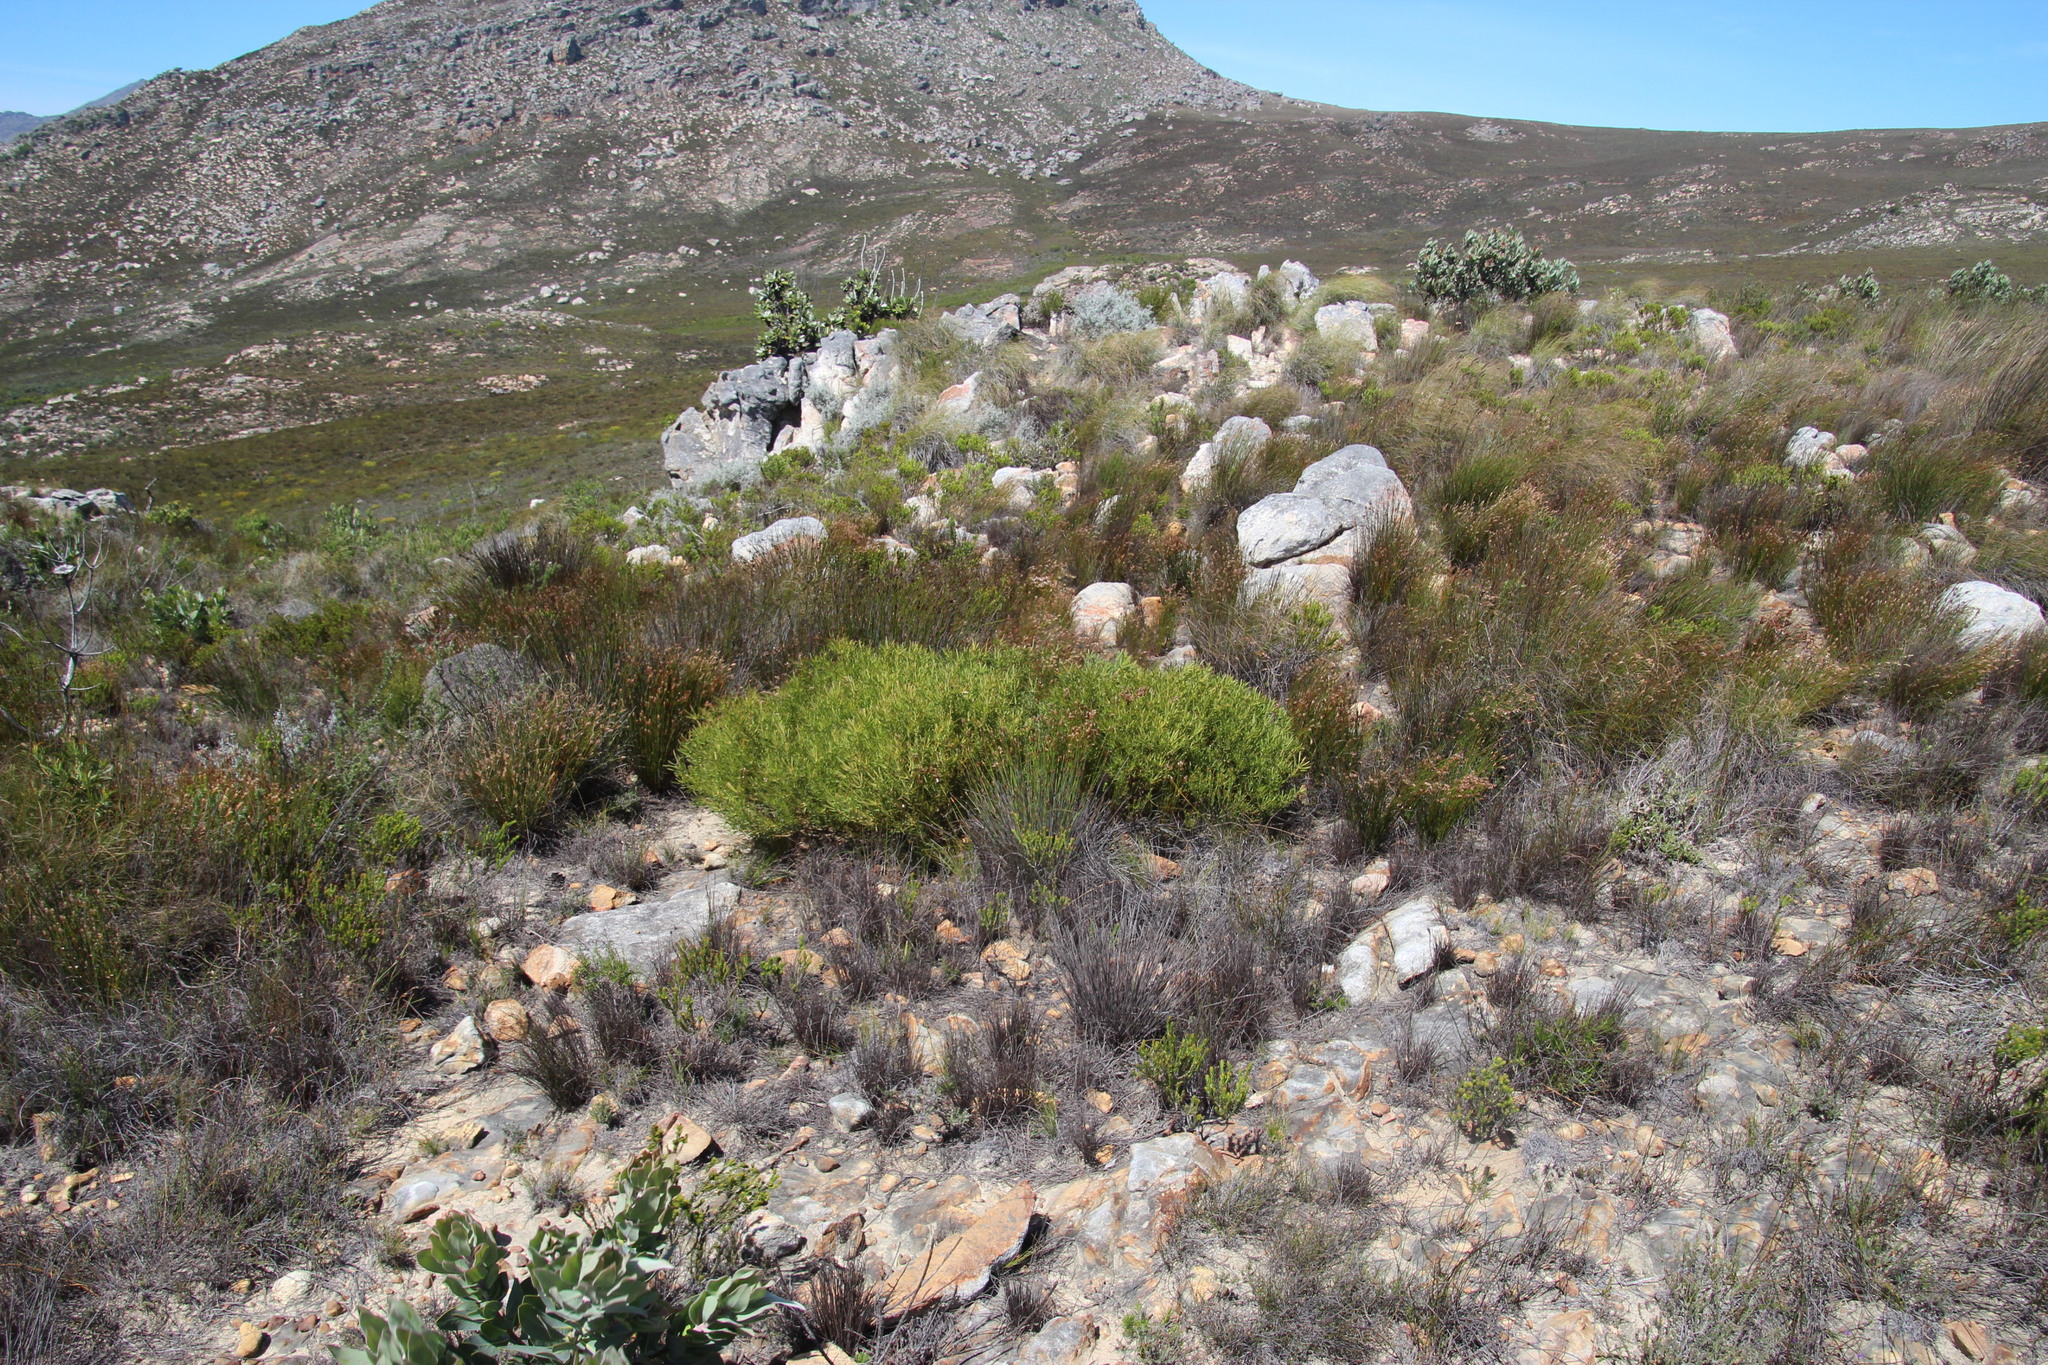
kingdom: Plantae
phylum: Tracheophyta
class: Magnoliopsida
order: Proteales
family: Proteaceae
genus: Leucadendron
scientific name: Leucadendron salignum
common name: Common sunshine conebush
